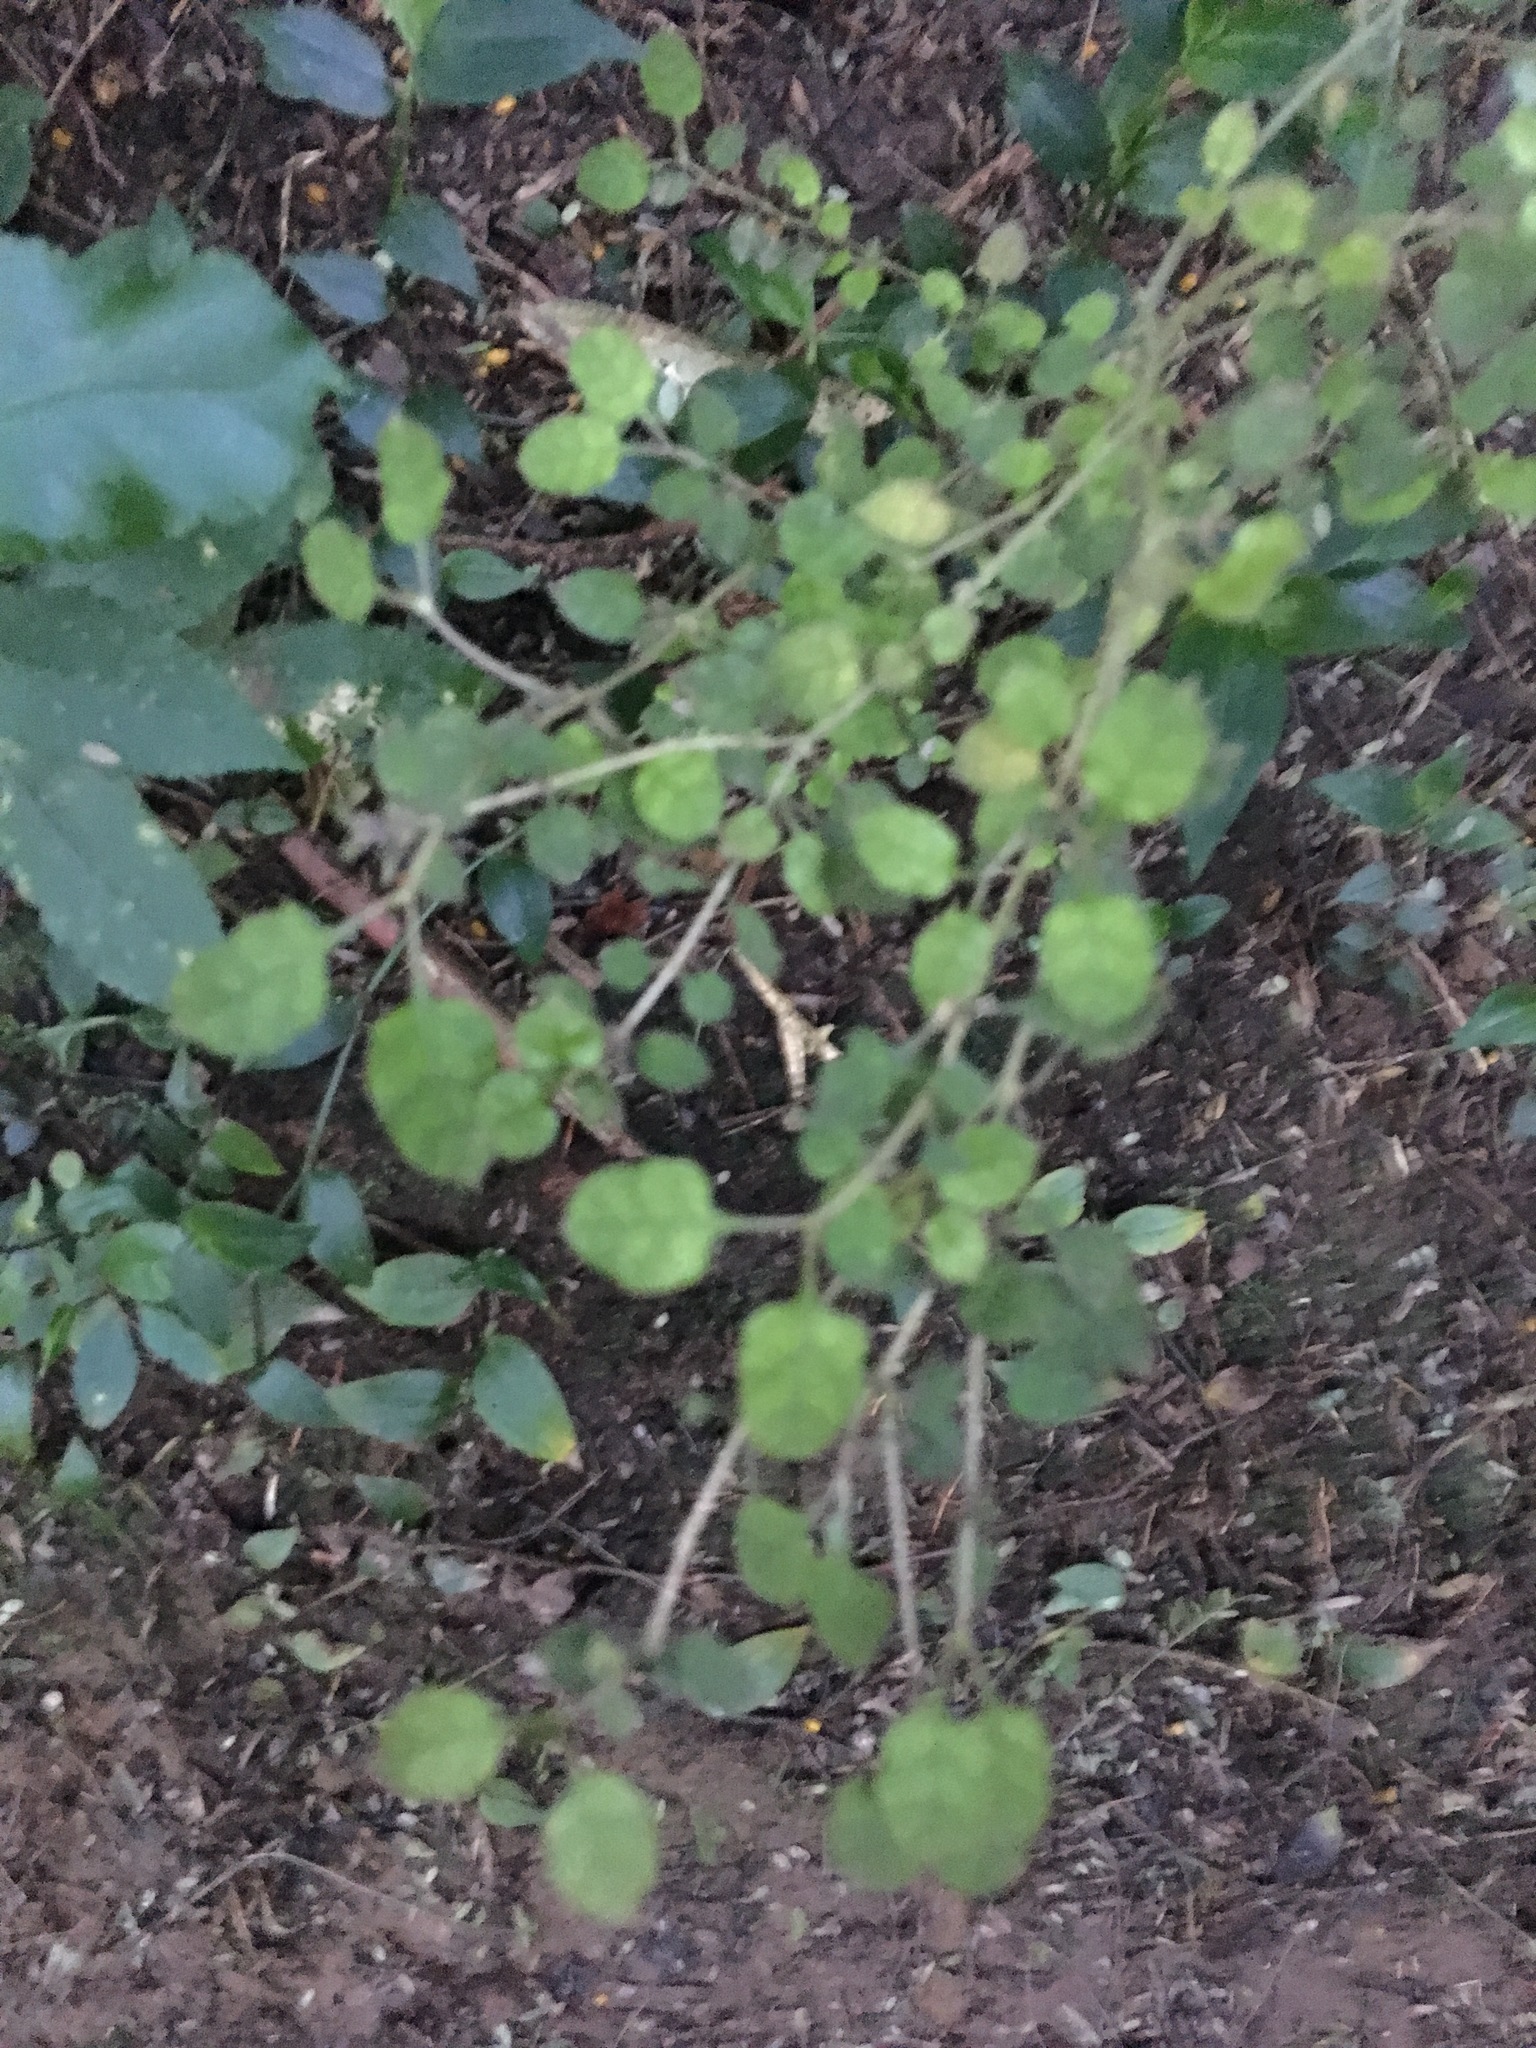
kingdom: Plantae
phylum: Tracheophyta
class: Magnoliopsida
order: Gentianales
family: Rubiaceae
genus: Coprosma
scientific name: Coprosma areolata
